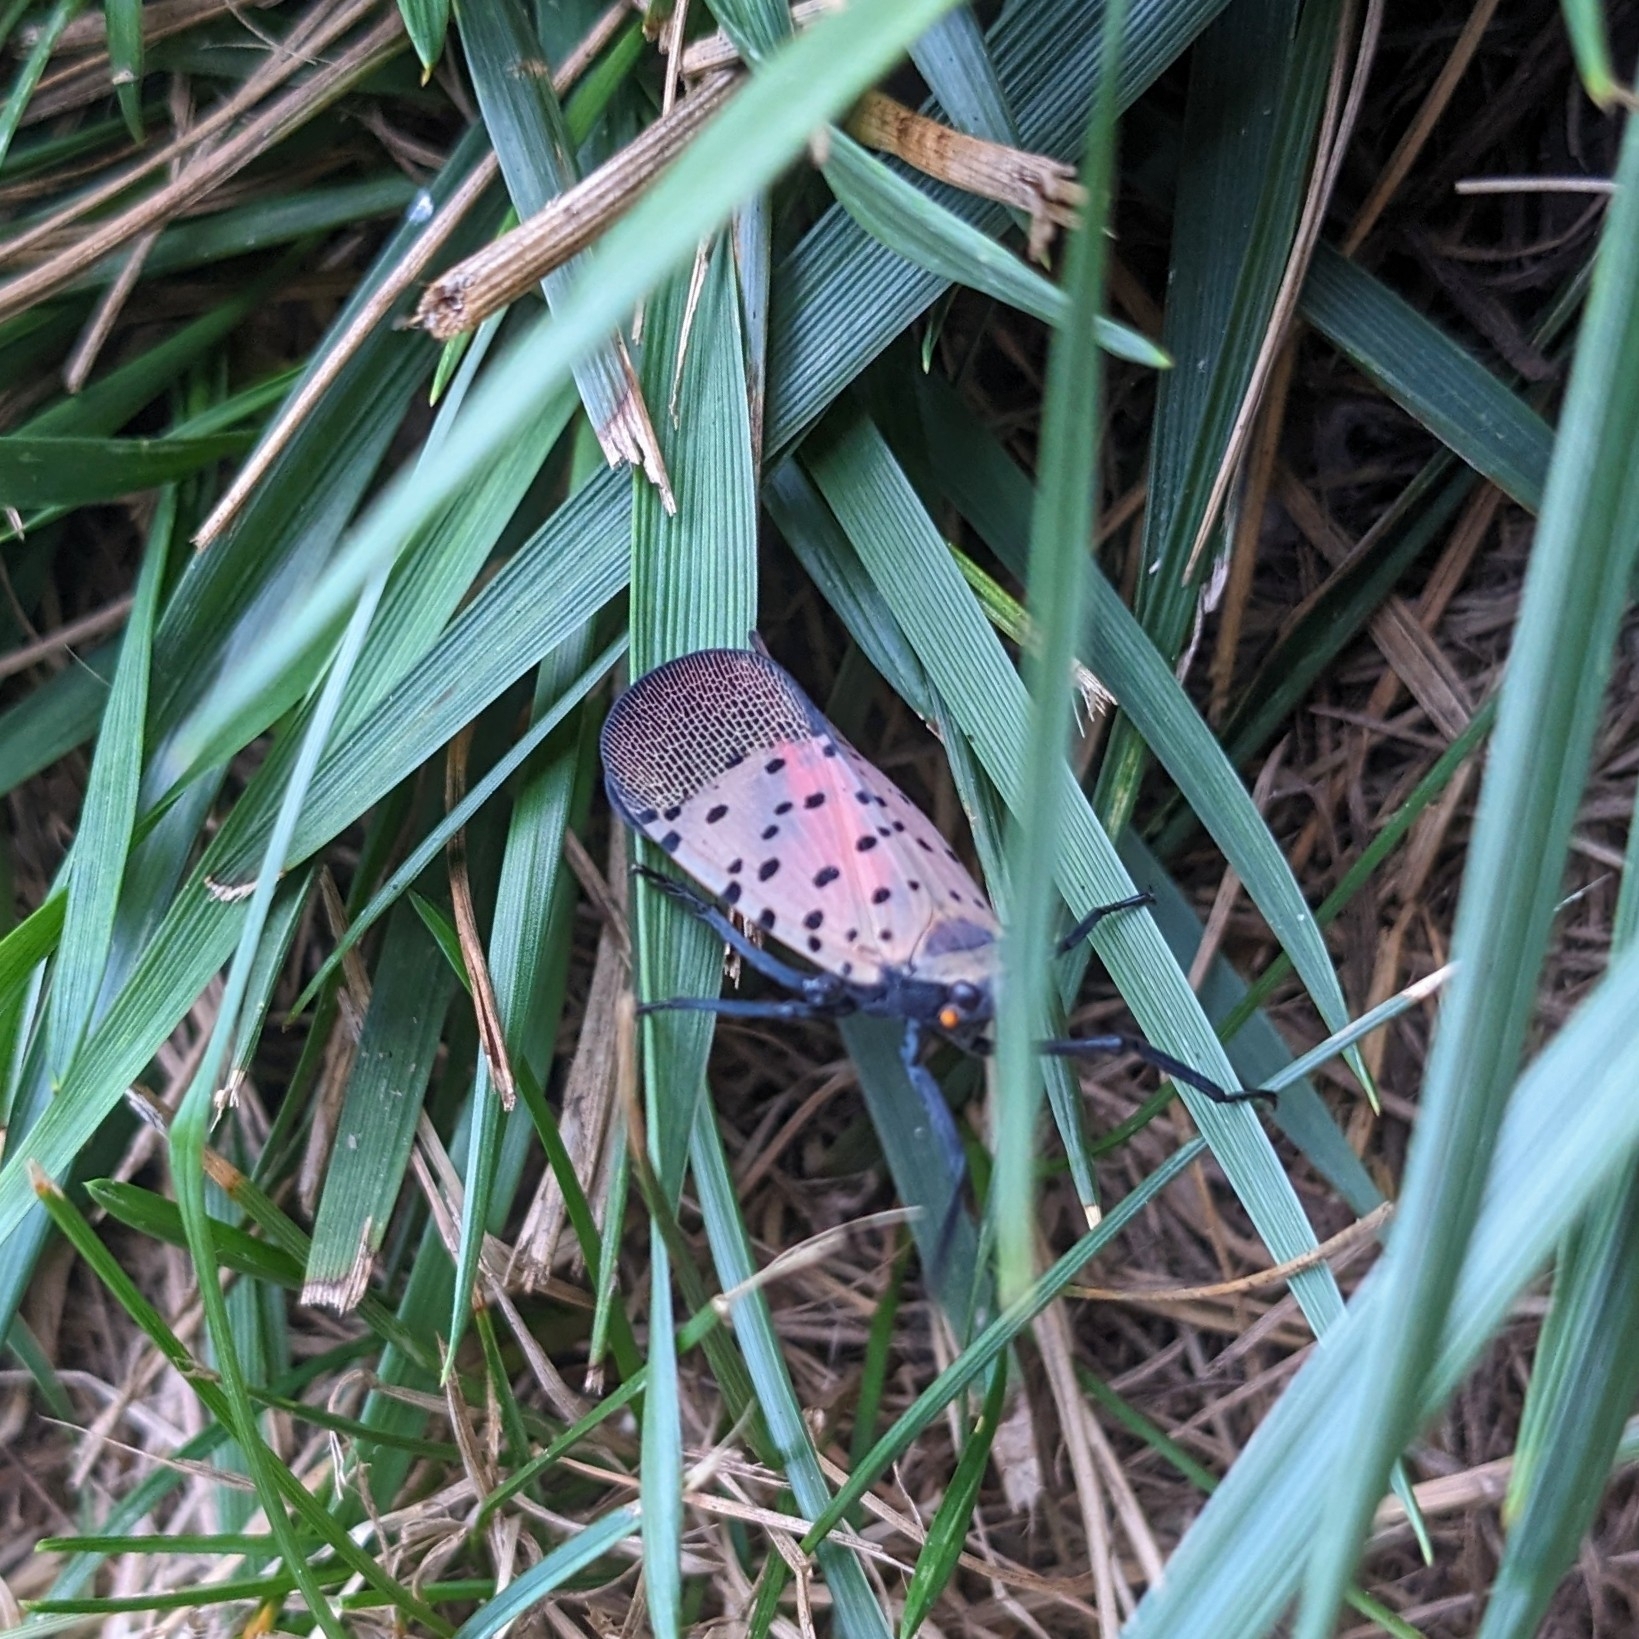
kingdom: Animalia
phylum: Arthropoda
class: Insecta
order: Hemiptera
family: Fulgoridae
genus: Lycorma
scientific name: Lycorma delicatula
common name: Spotted lanternfly
